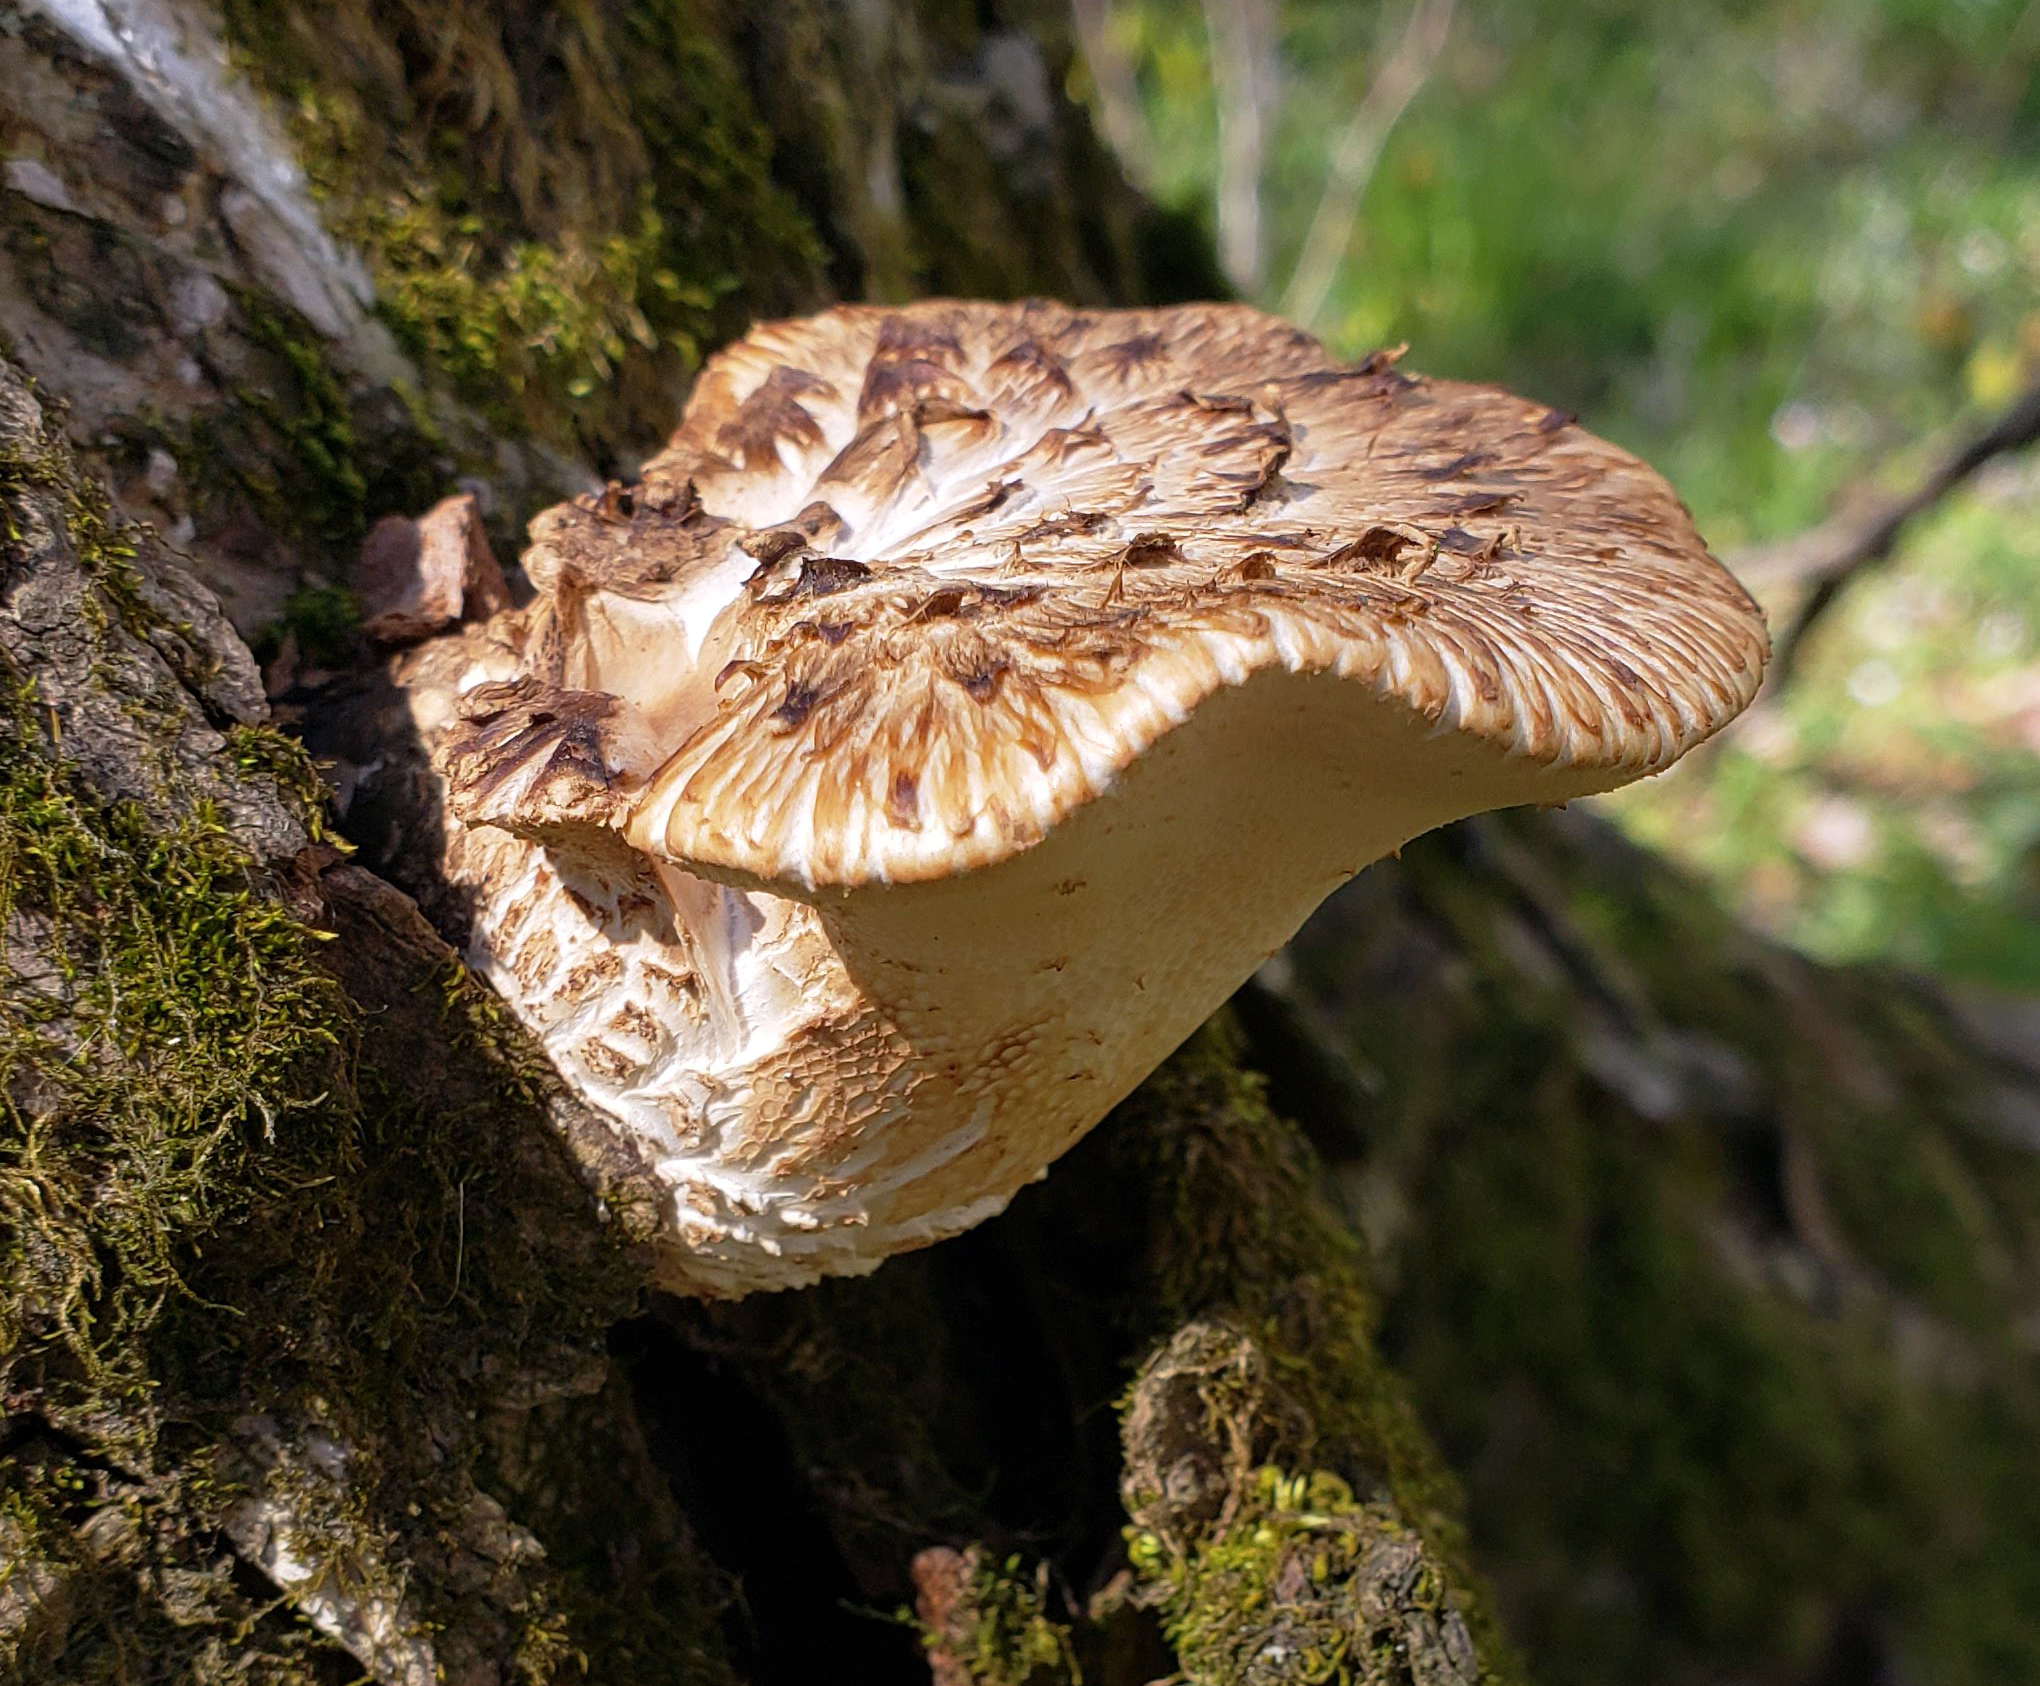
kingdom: Fungi
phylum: Basidiomycota
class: Agaricomycetes
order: Polyporales
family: Polyporaceae
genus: Cerioporus
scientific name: Cerioporus squamosus
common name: Dryad's saddle
